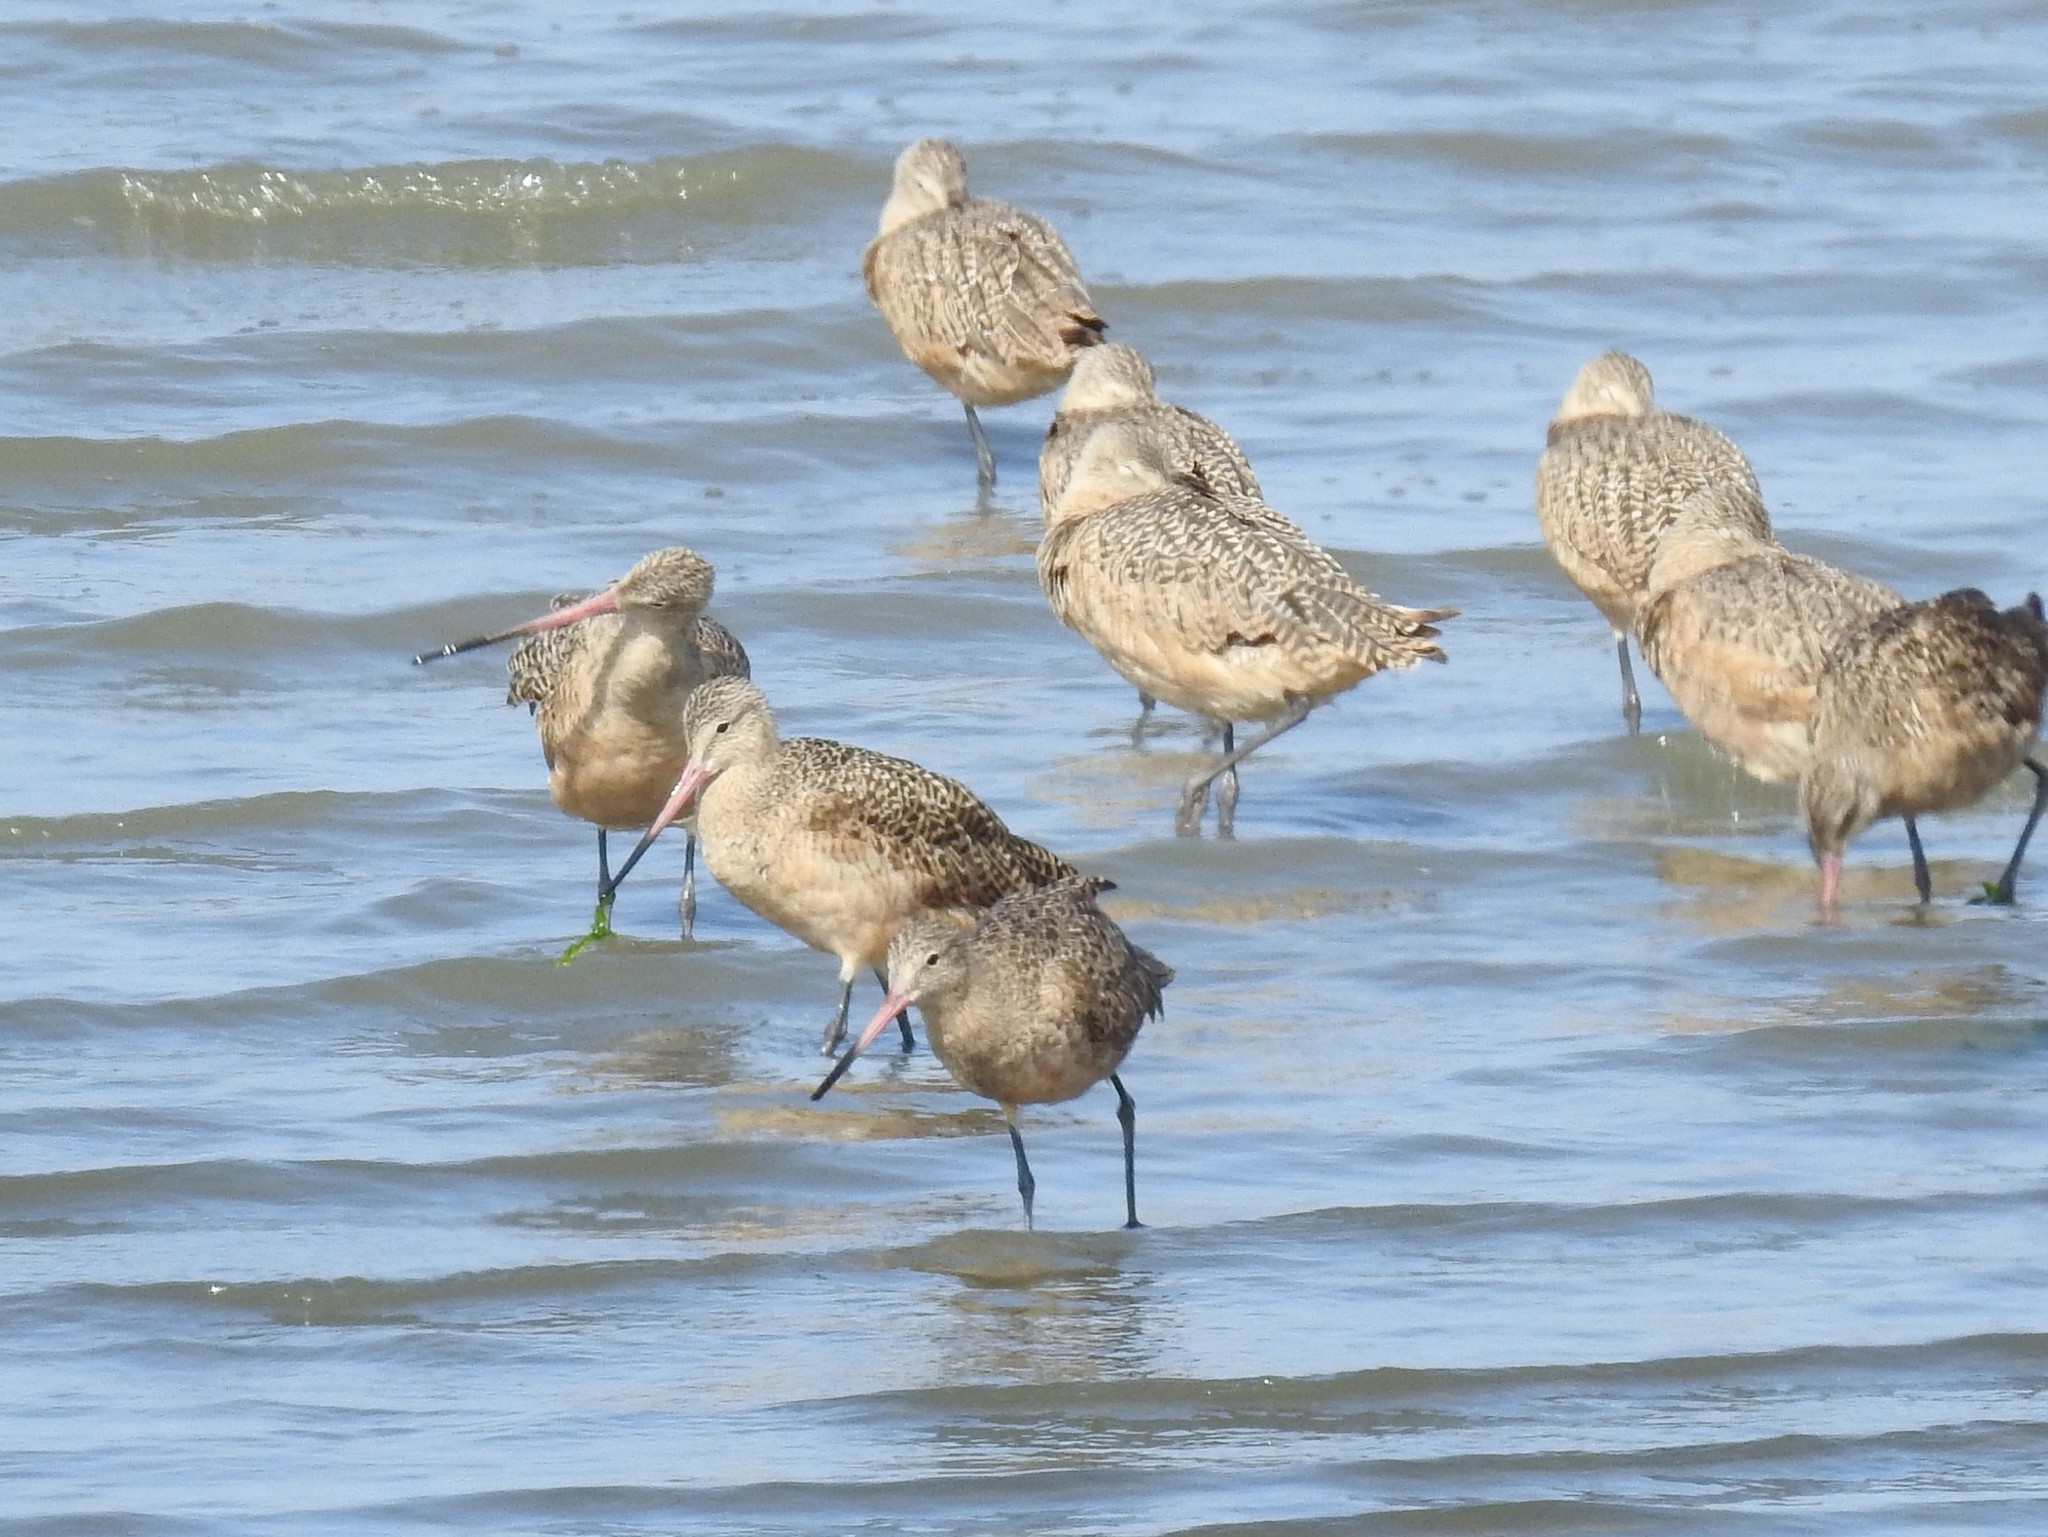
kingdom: Animalia
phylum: Chordata
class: Aves
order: Charadriiformes
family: Scolopacidae
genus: Limosa
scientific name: Limosa fedoa
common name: Marbled godwit
